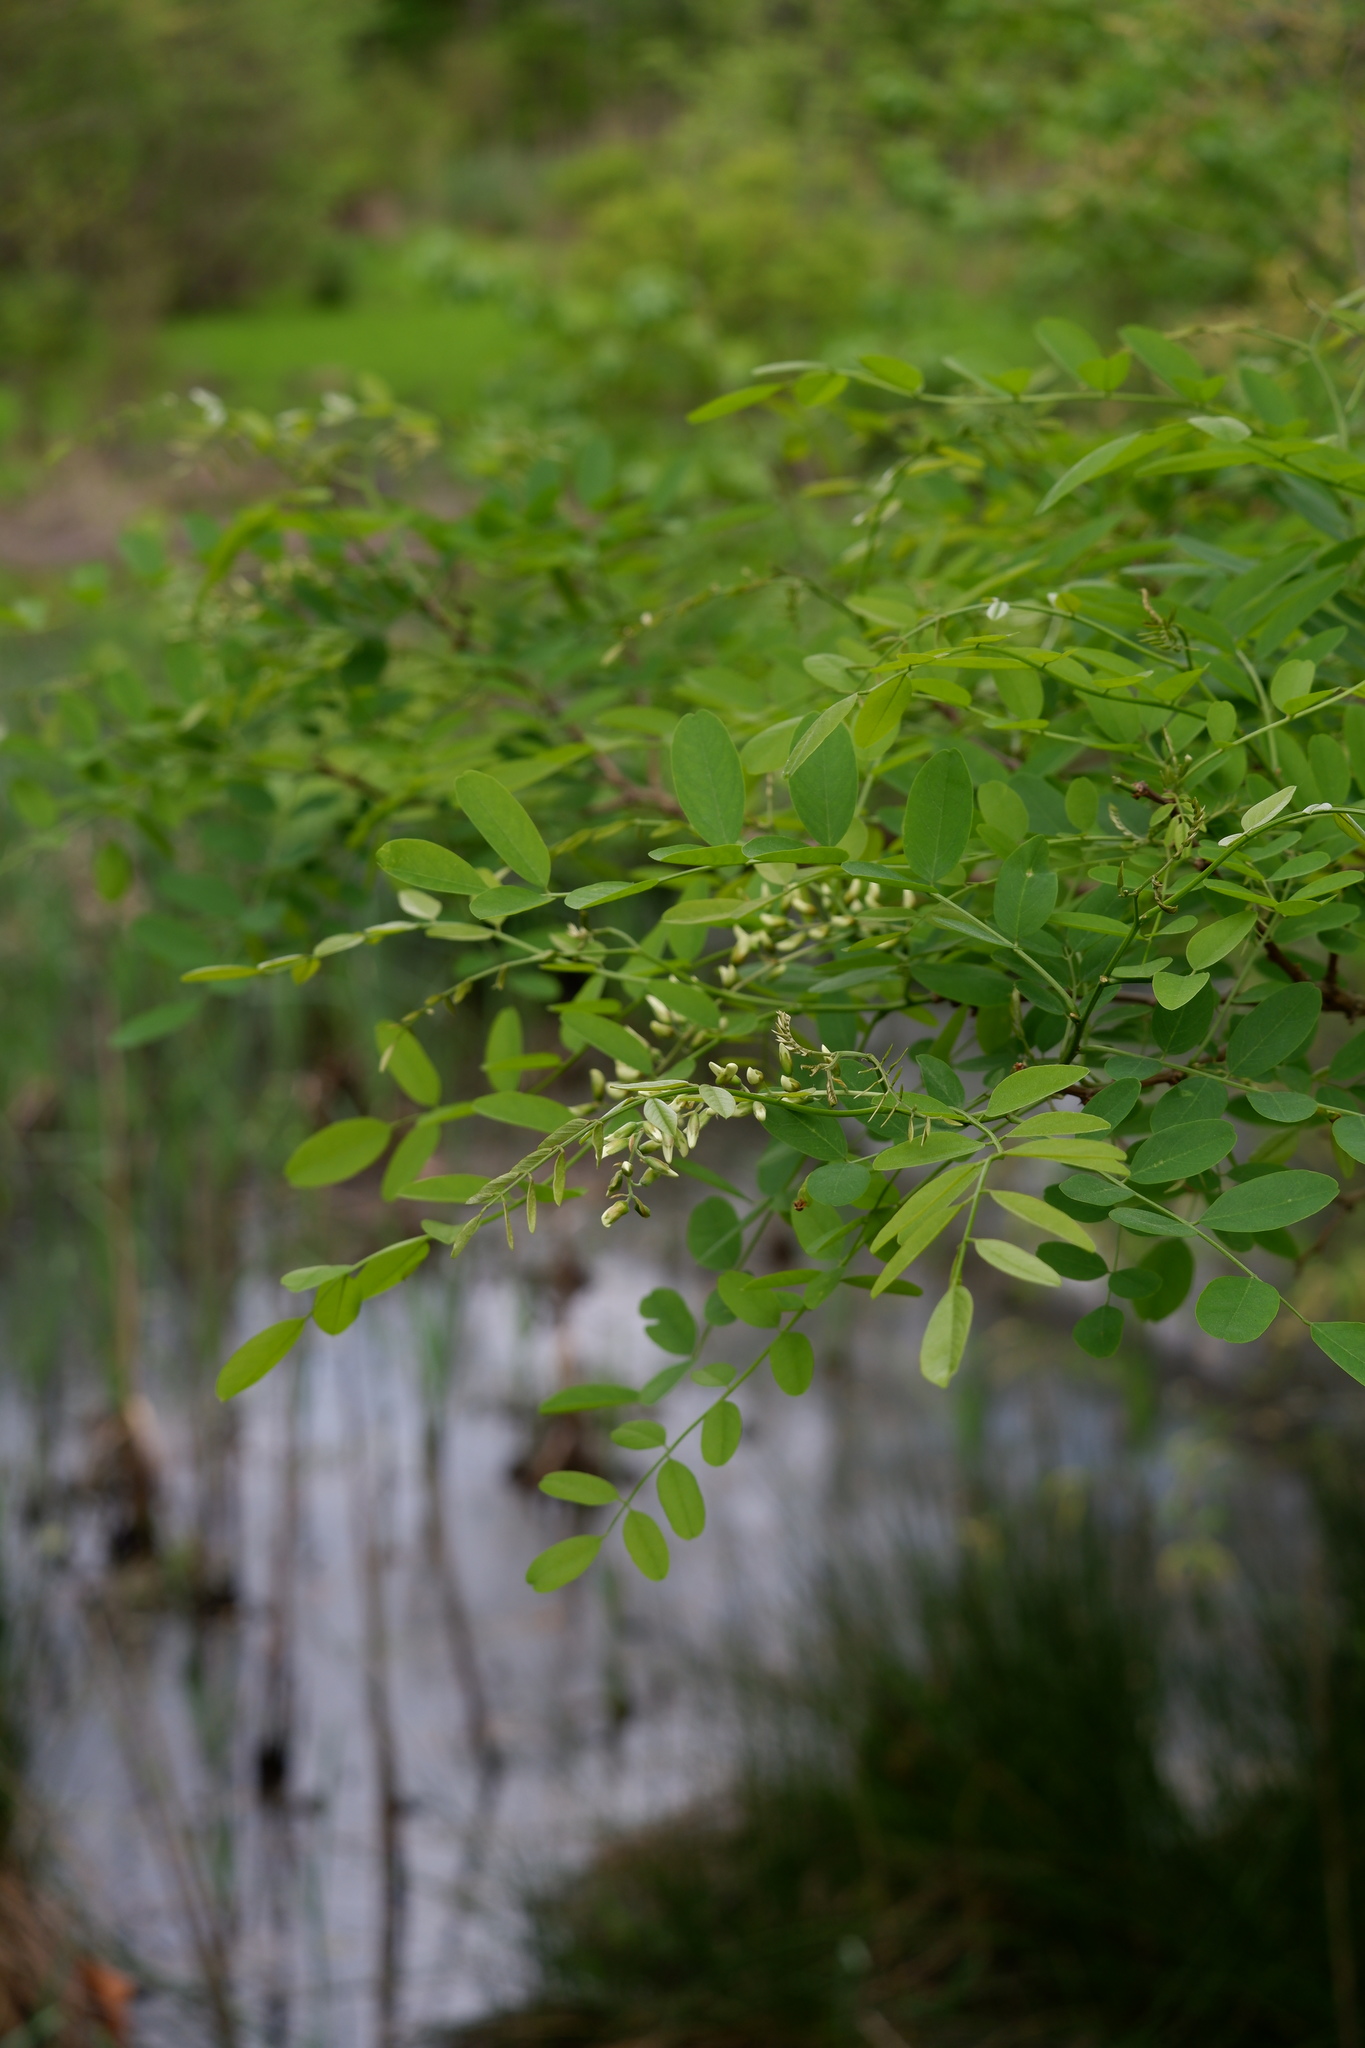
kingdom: Plantae
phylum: Tracheophyta
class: Magnoliopsida
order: Fabales
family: Fabaceae
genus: Robinia
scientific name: Robinia pseudoacacia
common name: Black locust
